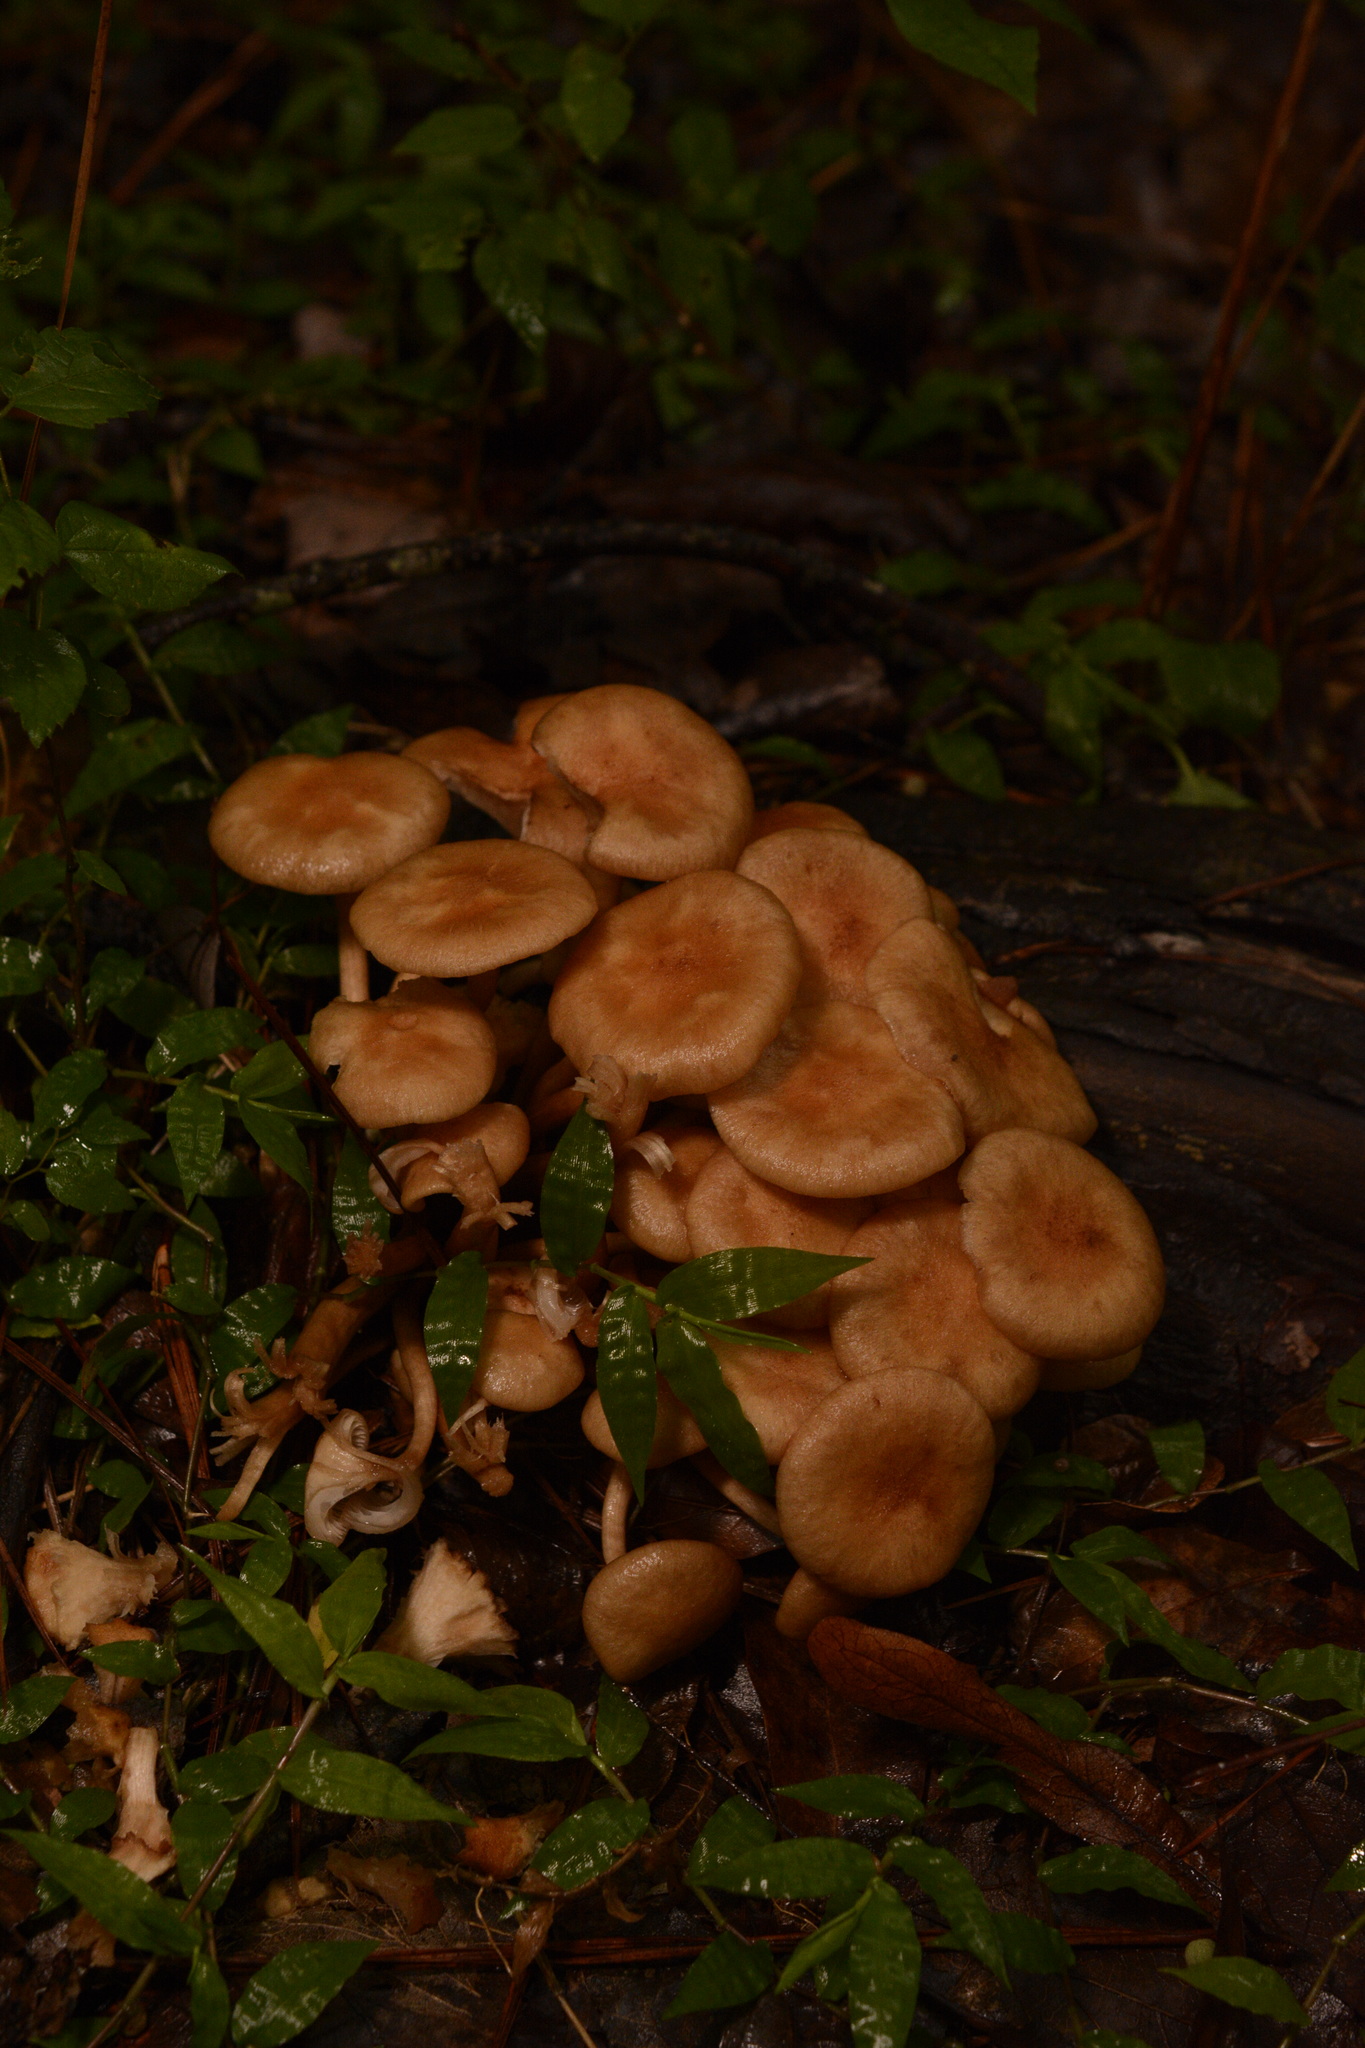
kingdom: Fungi
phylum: Basidiomycota
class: Agaricomycetes
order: Agaricales
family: Physalacriaceae
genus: Desarmillaria
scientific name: Desarmillaria caespitosa
